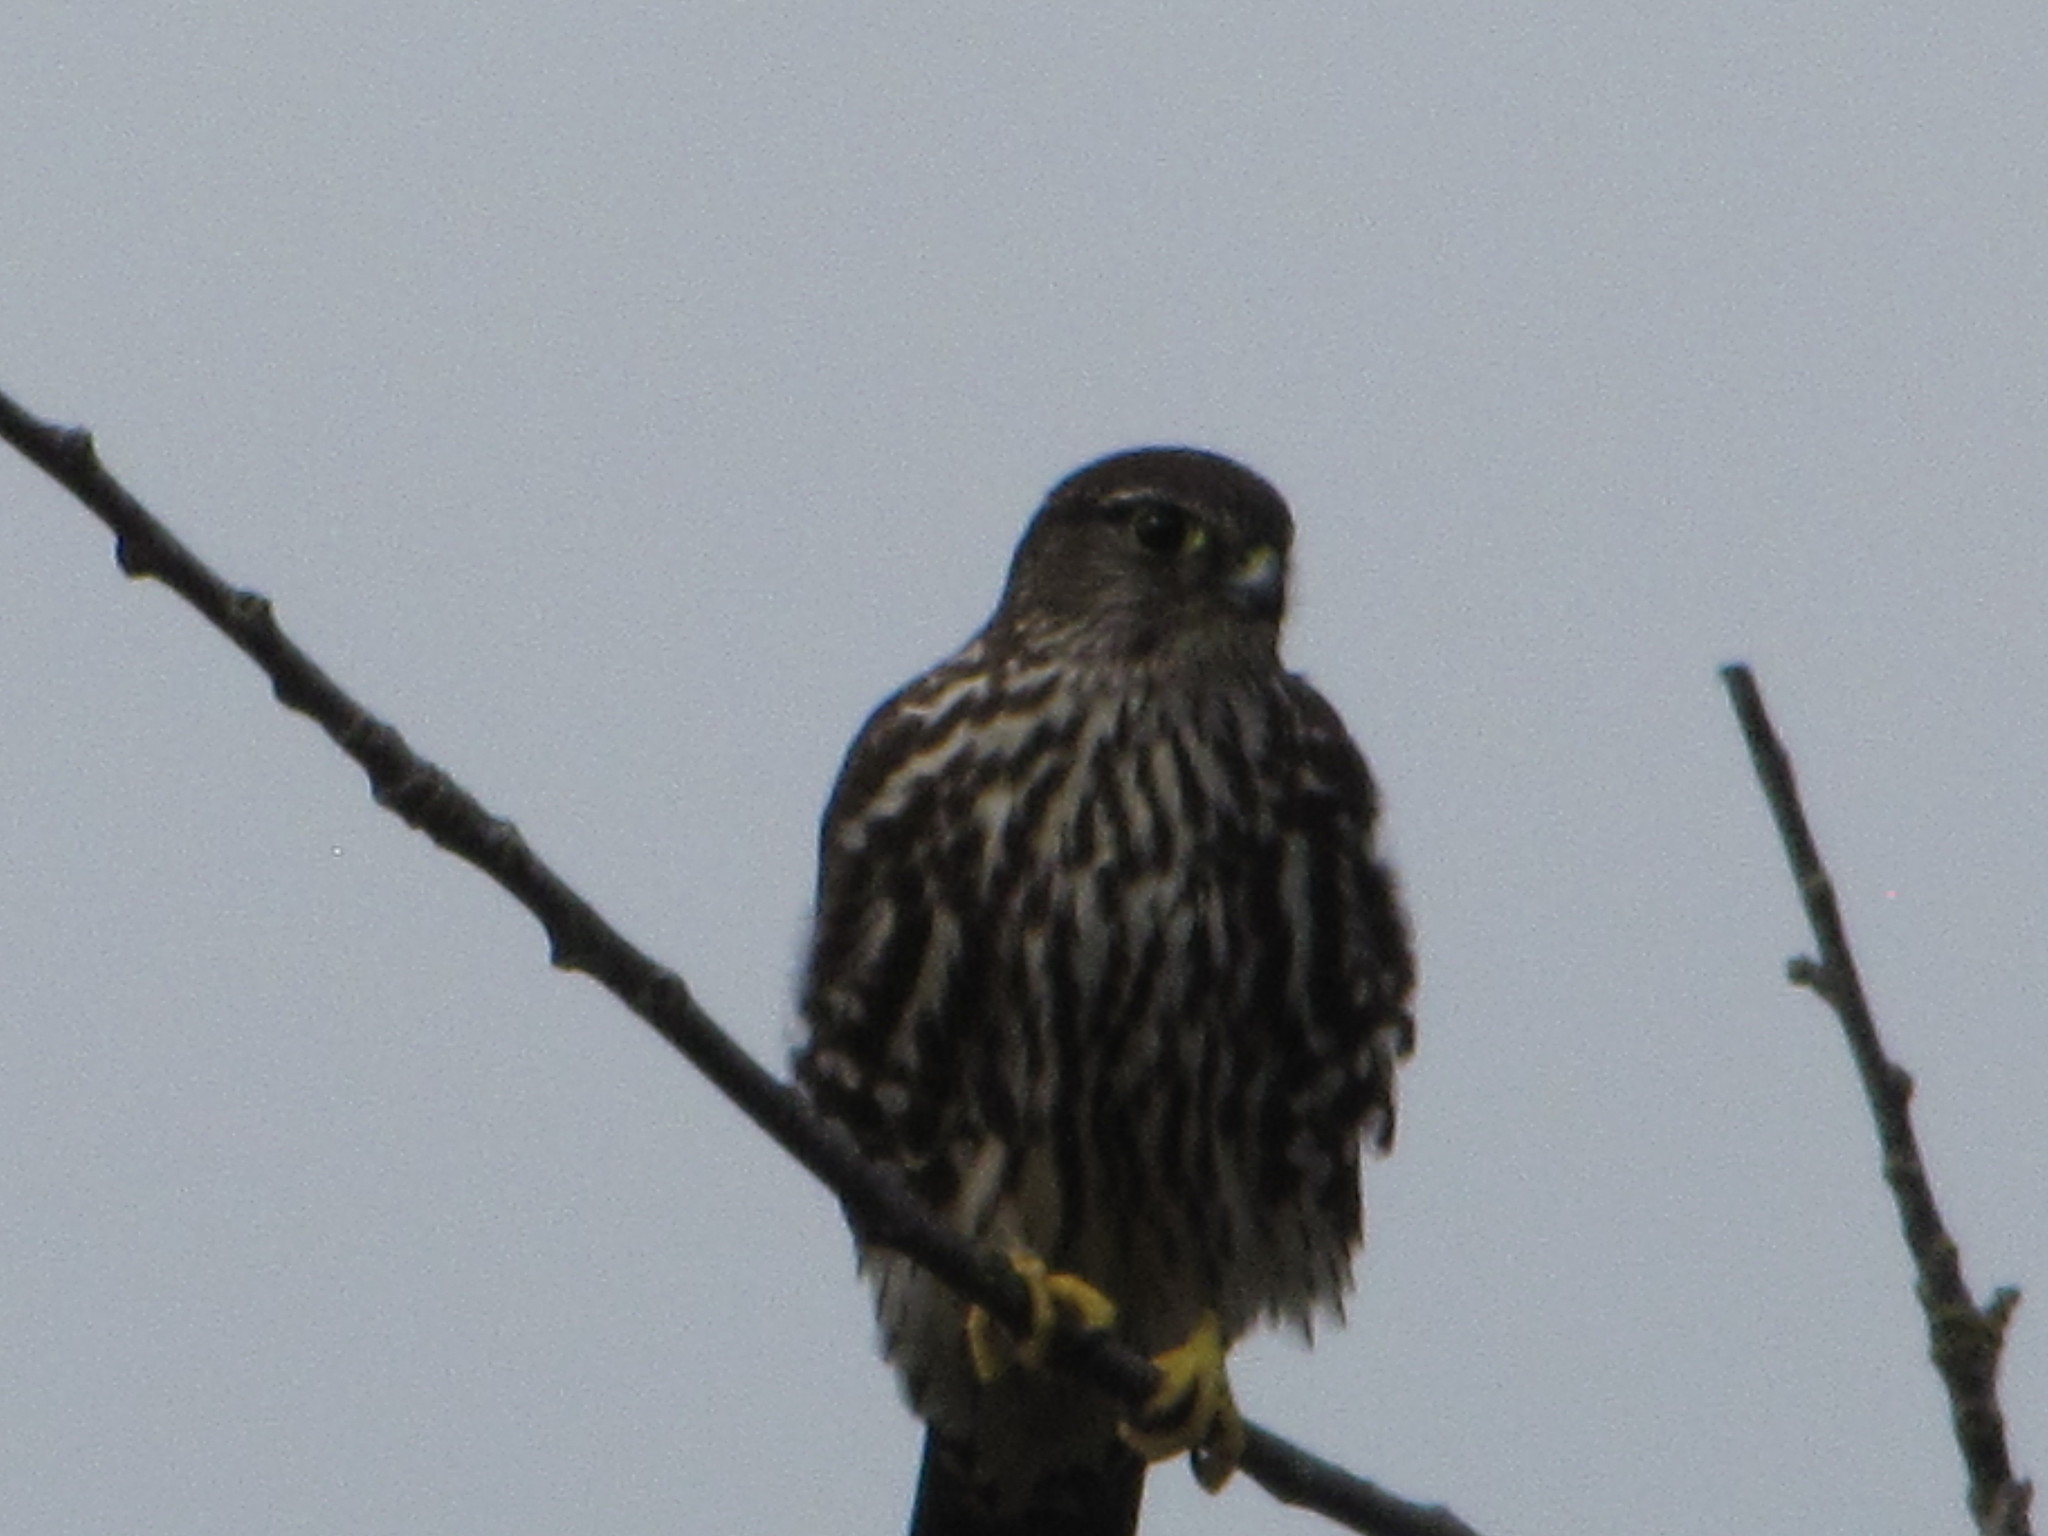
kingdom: Animalia
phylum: Chordata
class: Aves
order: Falconiformes
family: Falconidae
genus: Falco
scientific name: Falco columbarius
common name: Merlin
